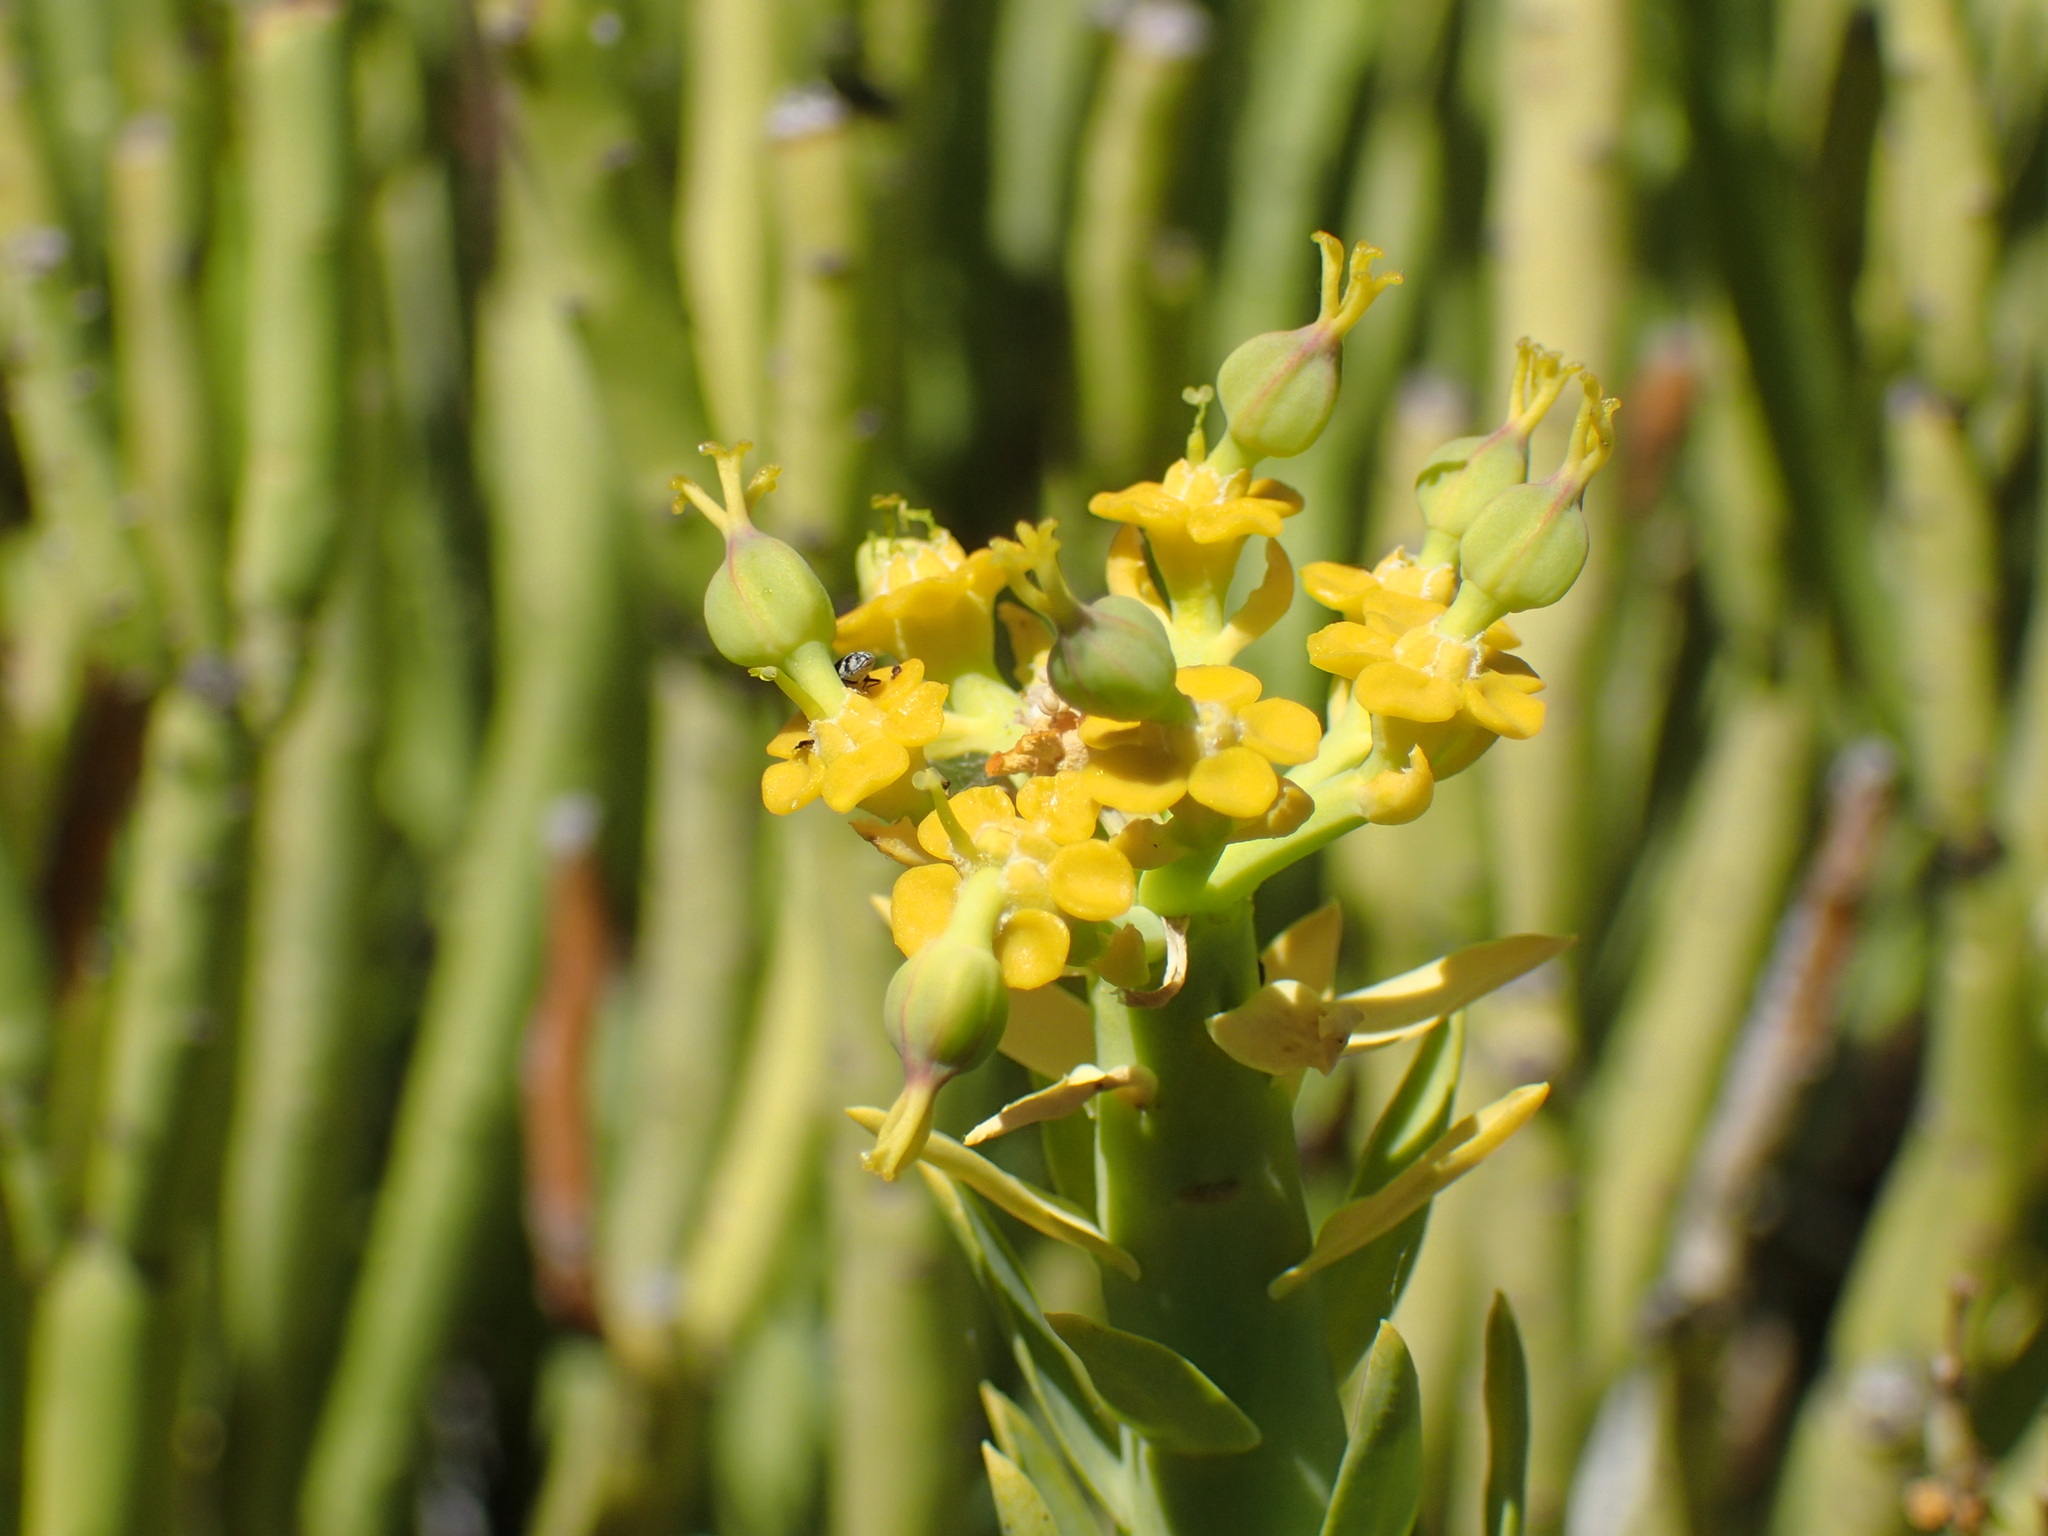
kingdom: Plantae
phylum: Tracheophyta
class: Magnoliopsida
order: Malpighiales
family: Euphorbiaceae
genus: Euphorbia
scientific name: Euphorbia mauritanica
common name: Jackal's-food
